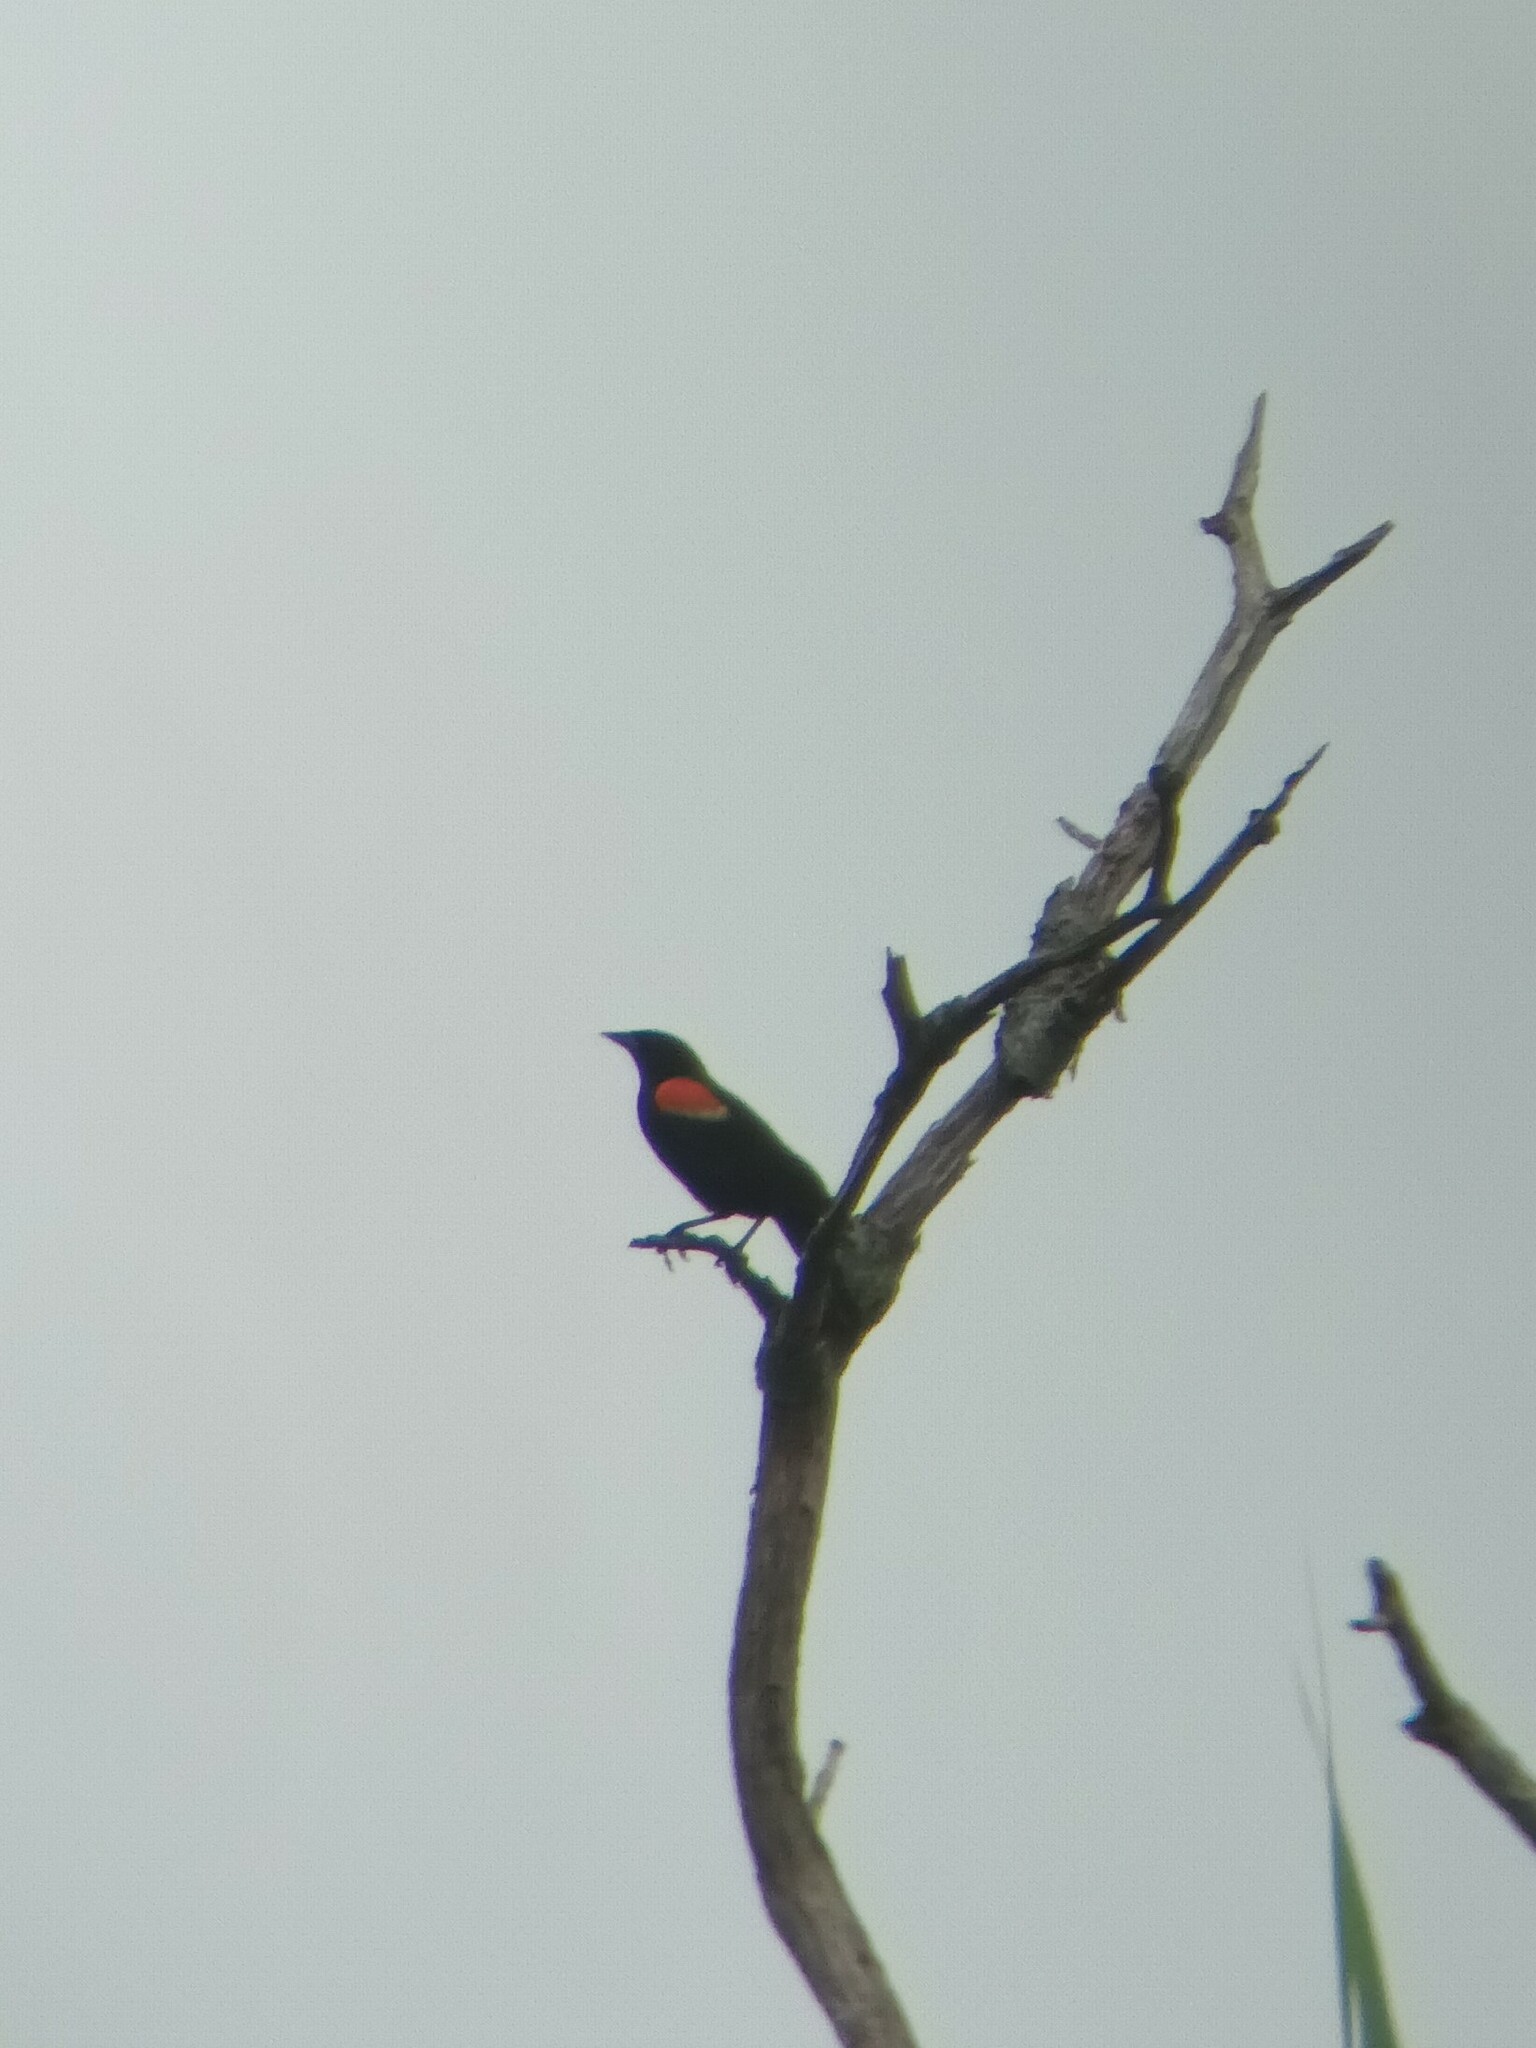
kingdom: Animalia
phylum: Chordata
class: Aves
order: Passeriformes
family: Icteridae
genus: Agelaius
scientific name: Agelaius phoeniceus
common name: Red-winged blackbird
